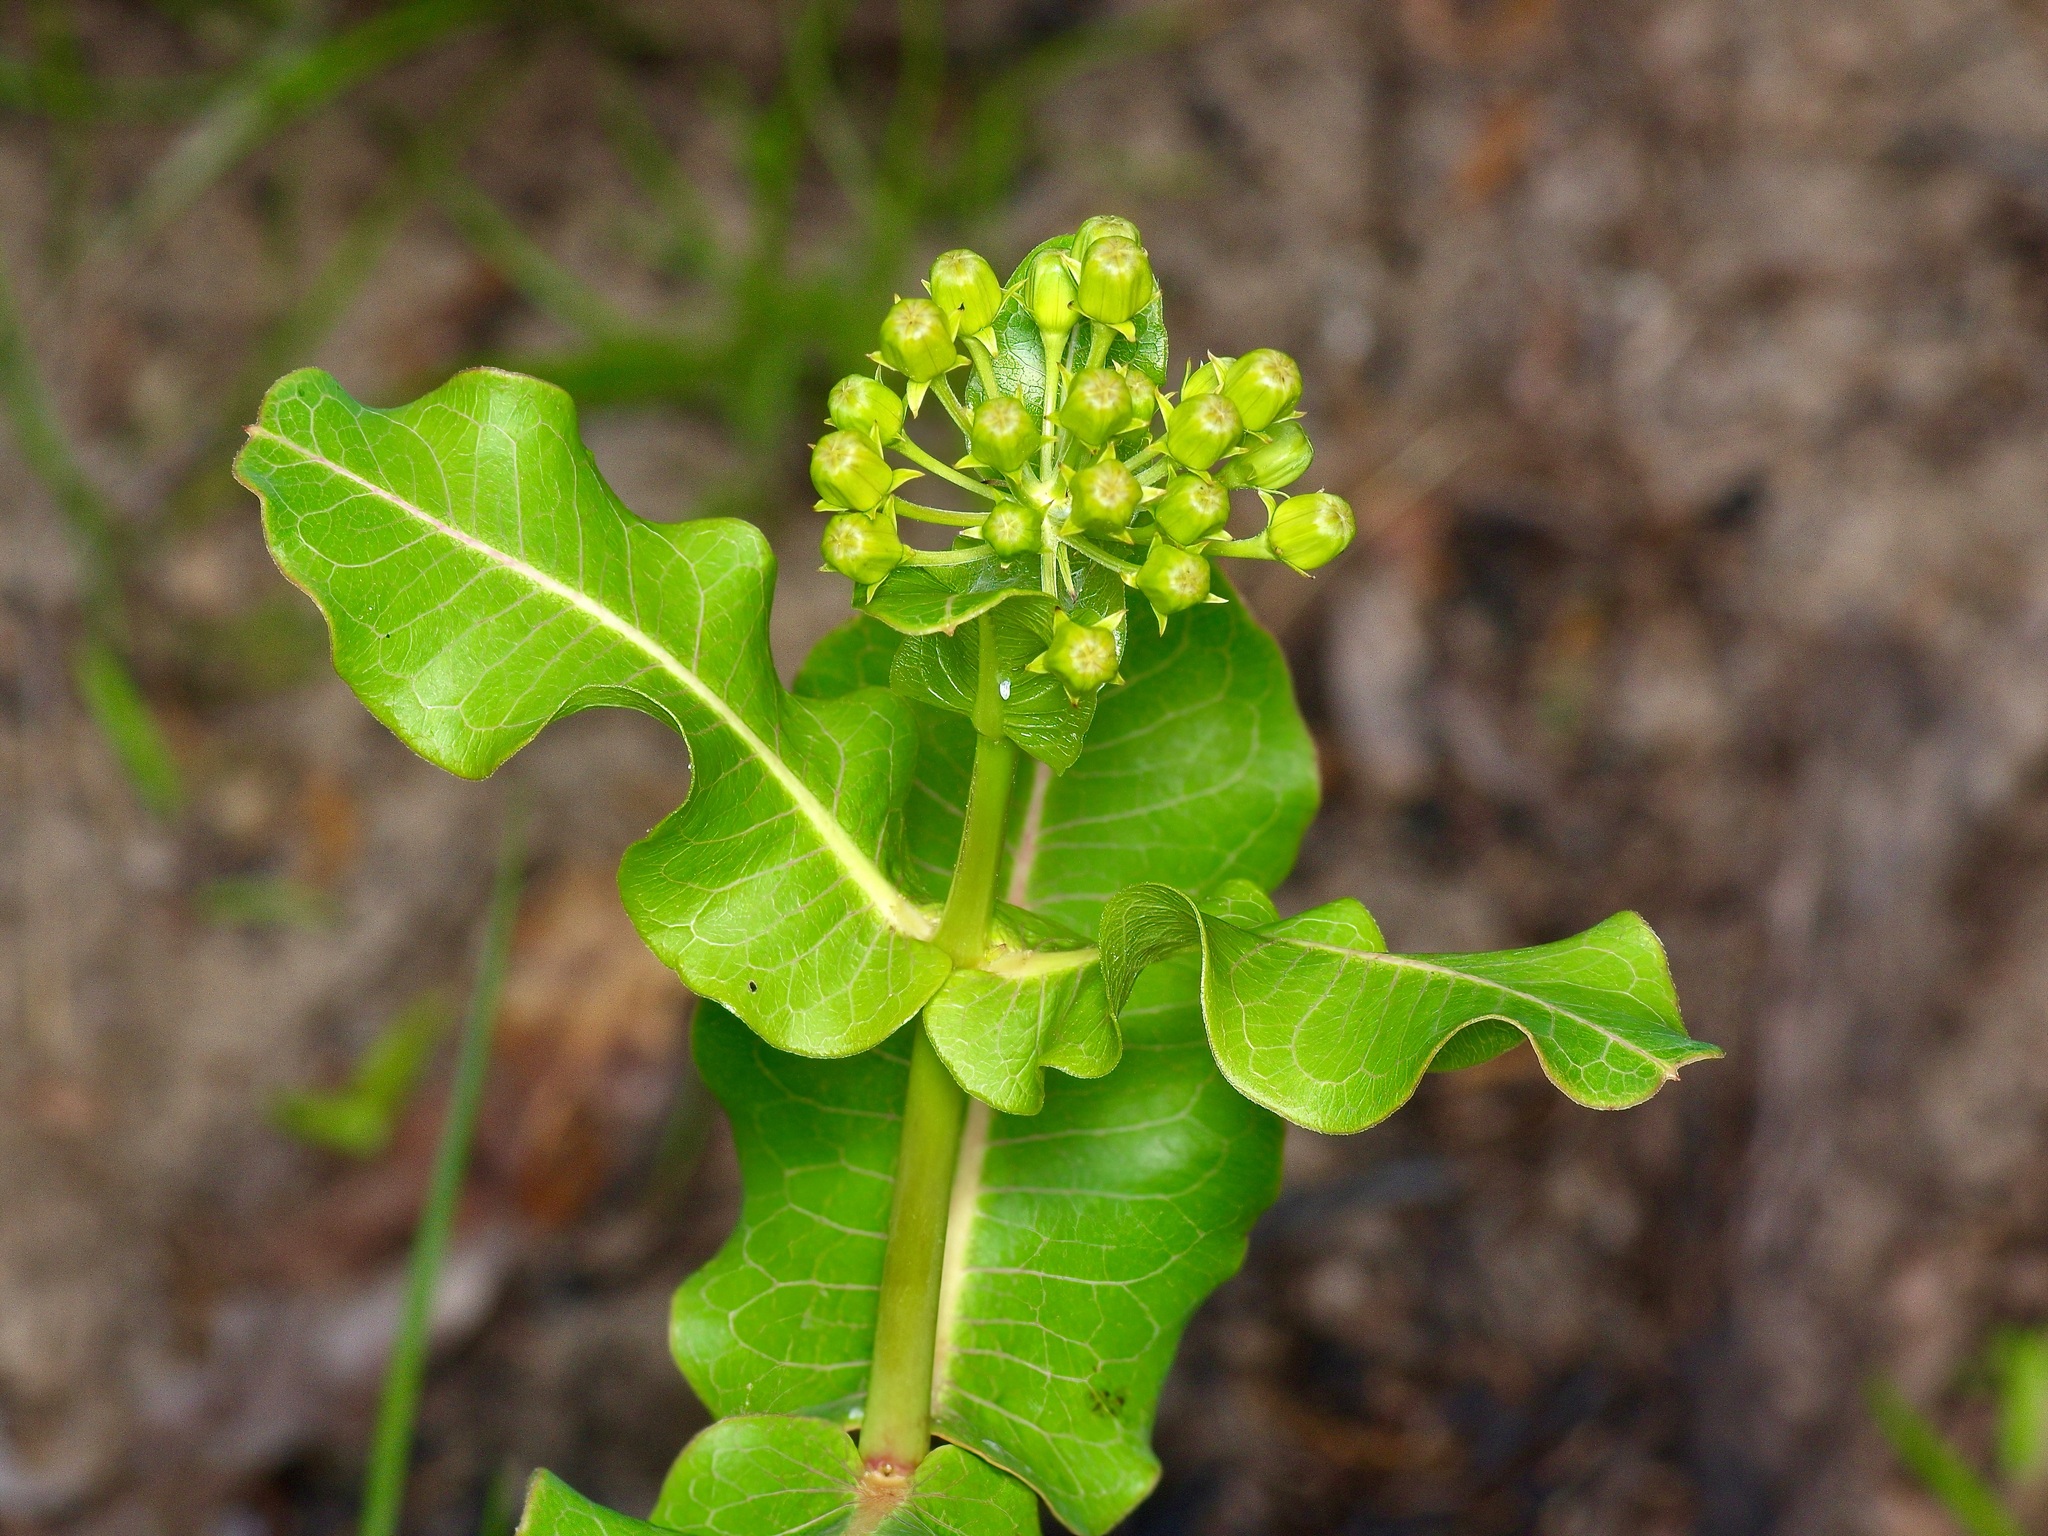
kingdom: Plantae
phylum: Tracheophyta
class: Magnoliopsida
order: Gentianales
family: Apocynaceae
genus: Asclepias
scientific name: Asclepias amplexicaulis
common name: Blunt-leaf milkweed
